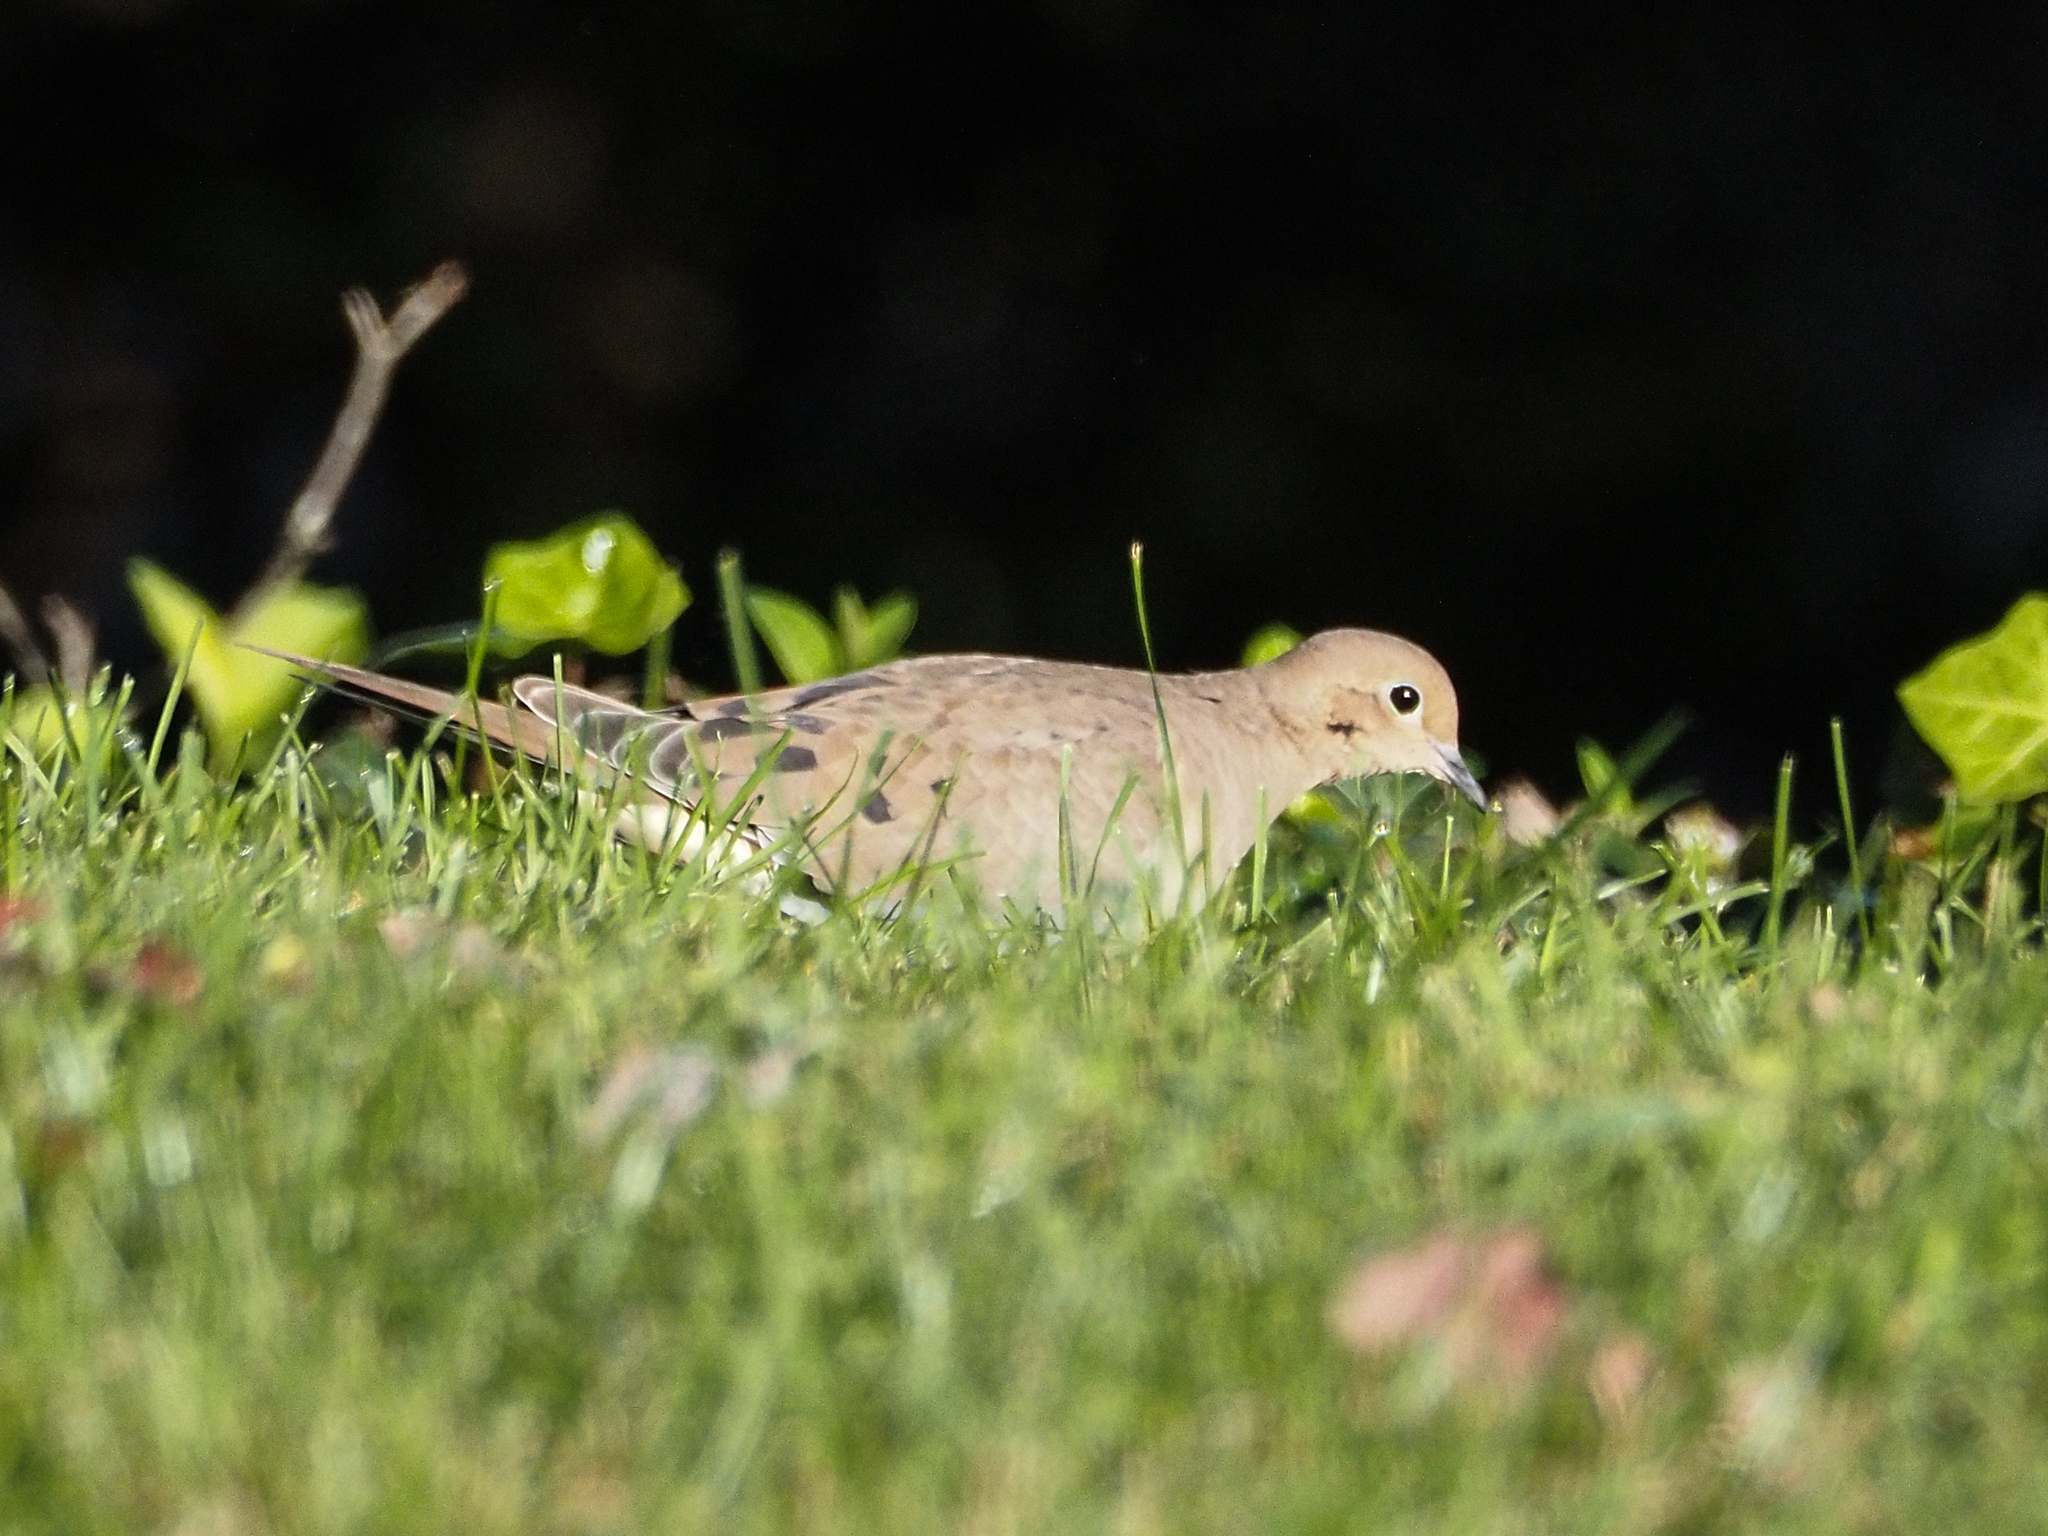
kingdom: Animalia
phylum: Chordata
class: Aves
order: Columbiformes
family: Columbidae
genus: Zenaida
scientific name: Zenaida macroura
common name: Mourning dove
